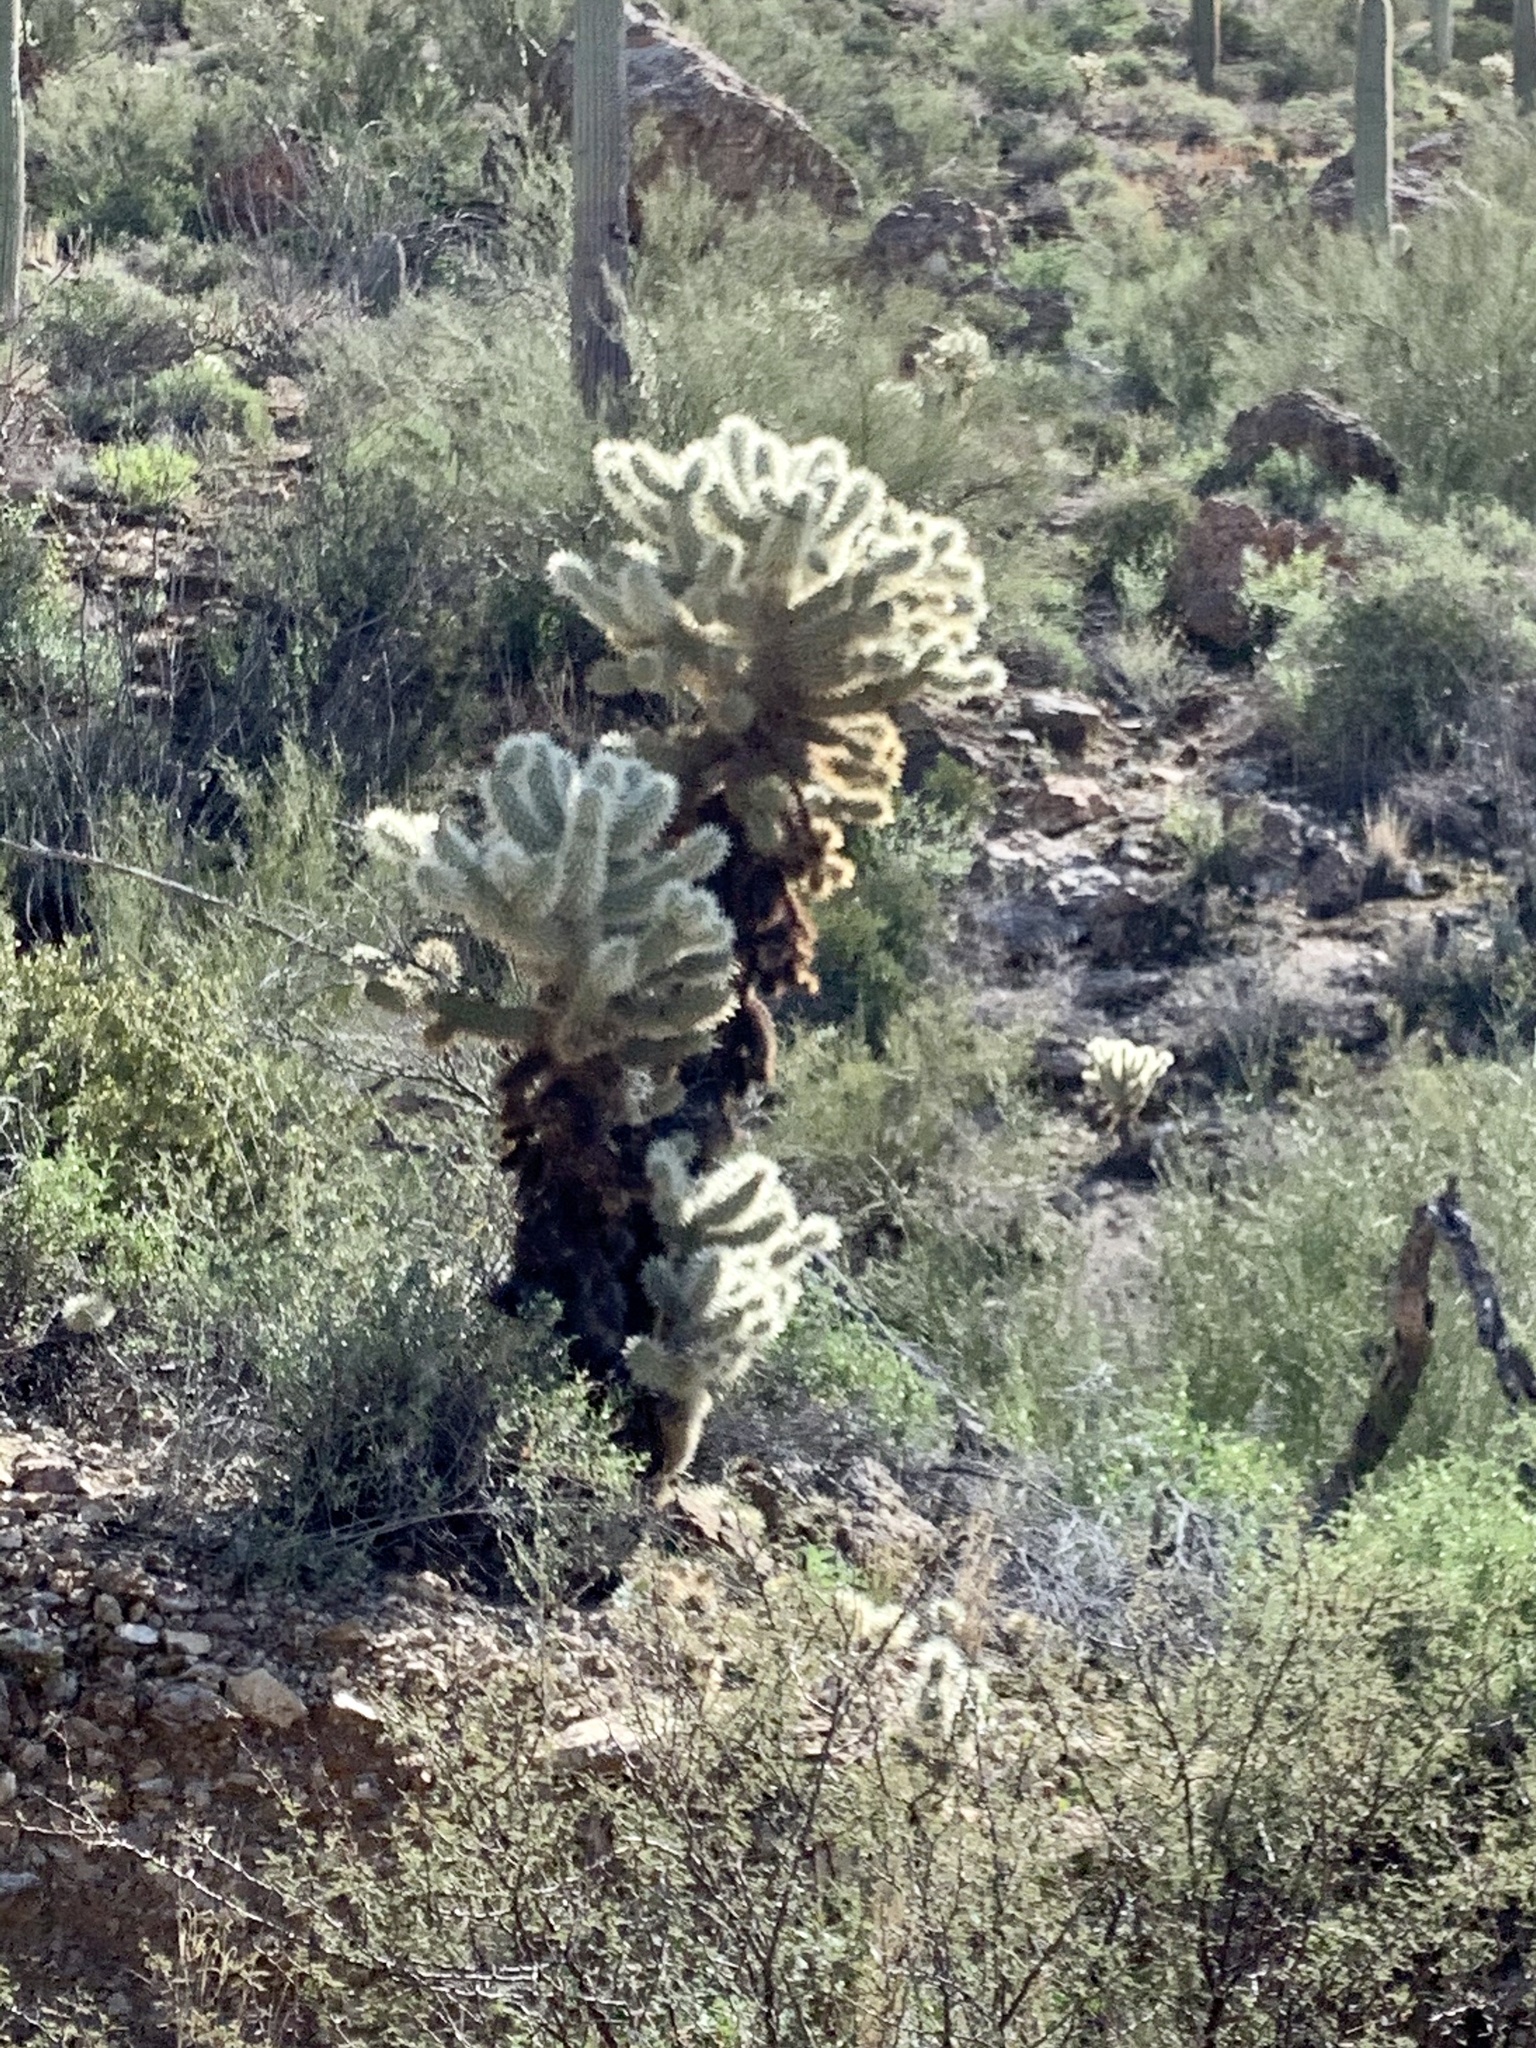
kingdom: Plantae
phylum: Tracheophyta
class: Magnoliopsida
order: Caryophyllales
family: Cactaceae
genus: Cylindropuntia
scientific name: Cylindropuntia fosbergii
